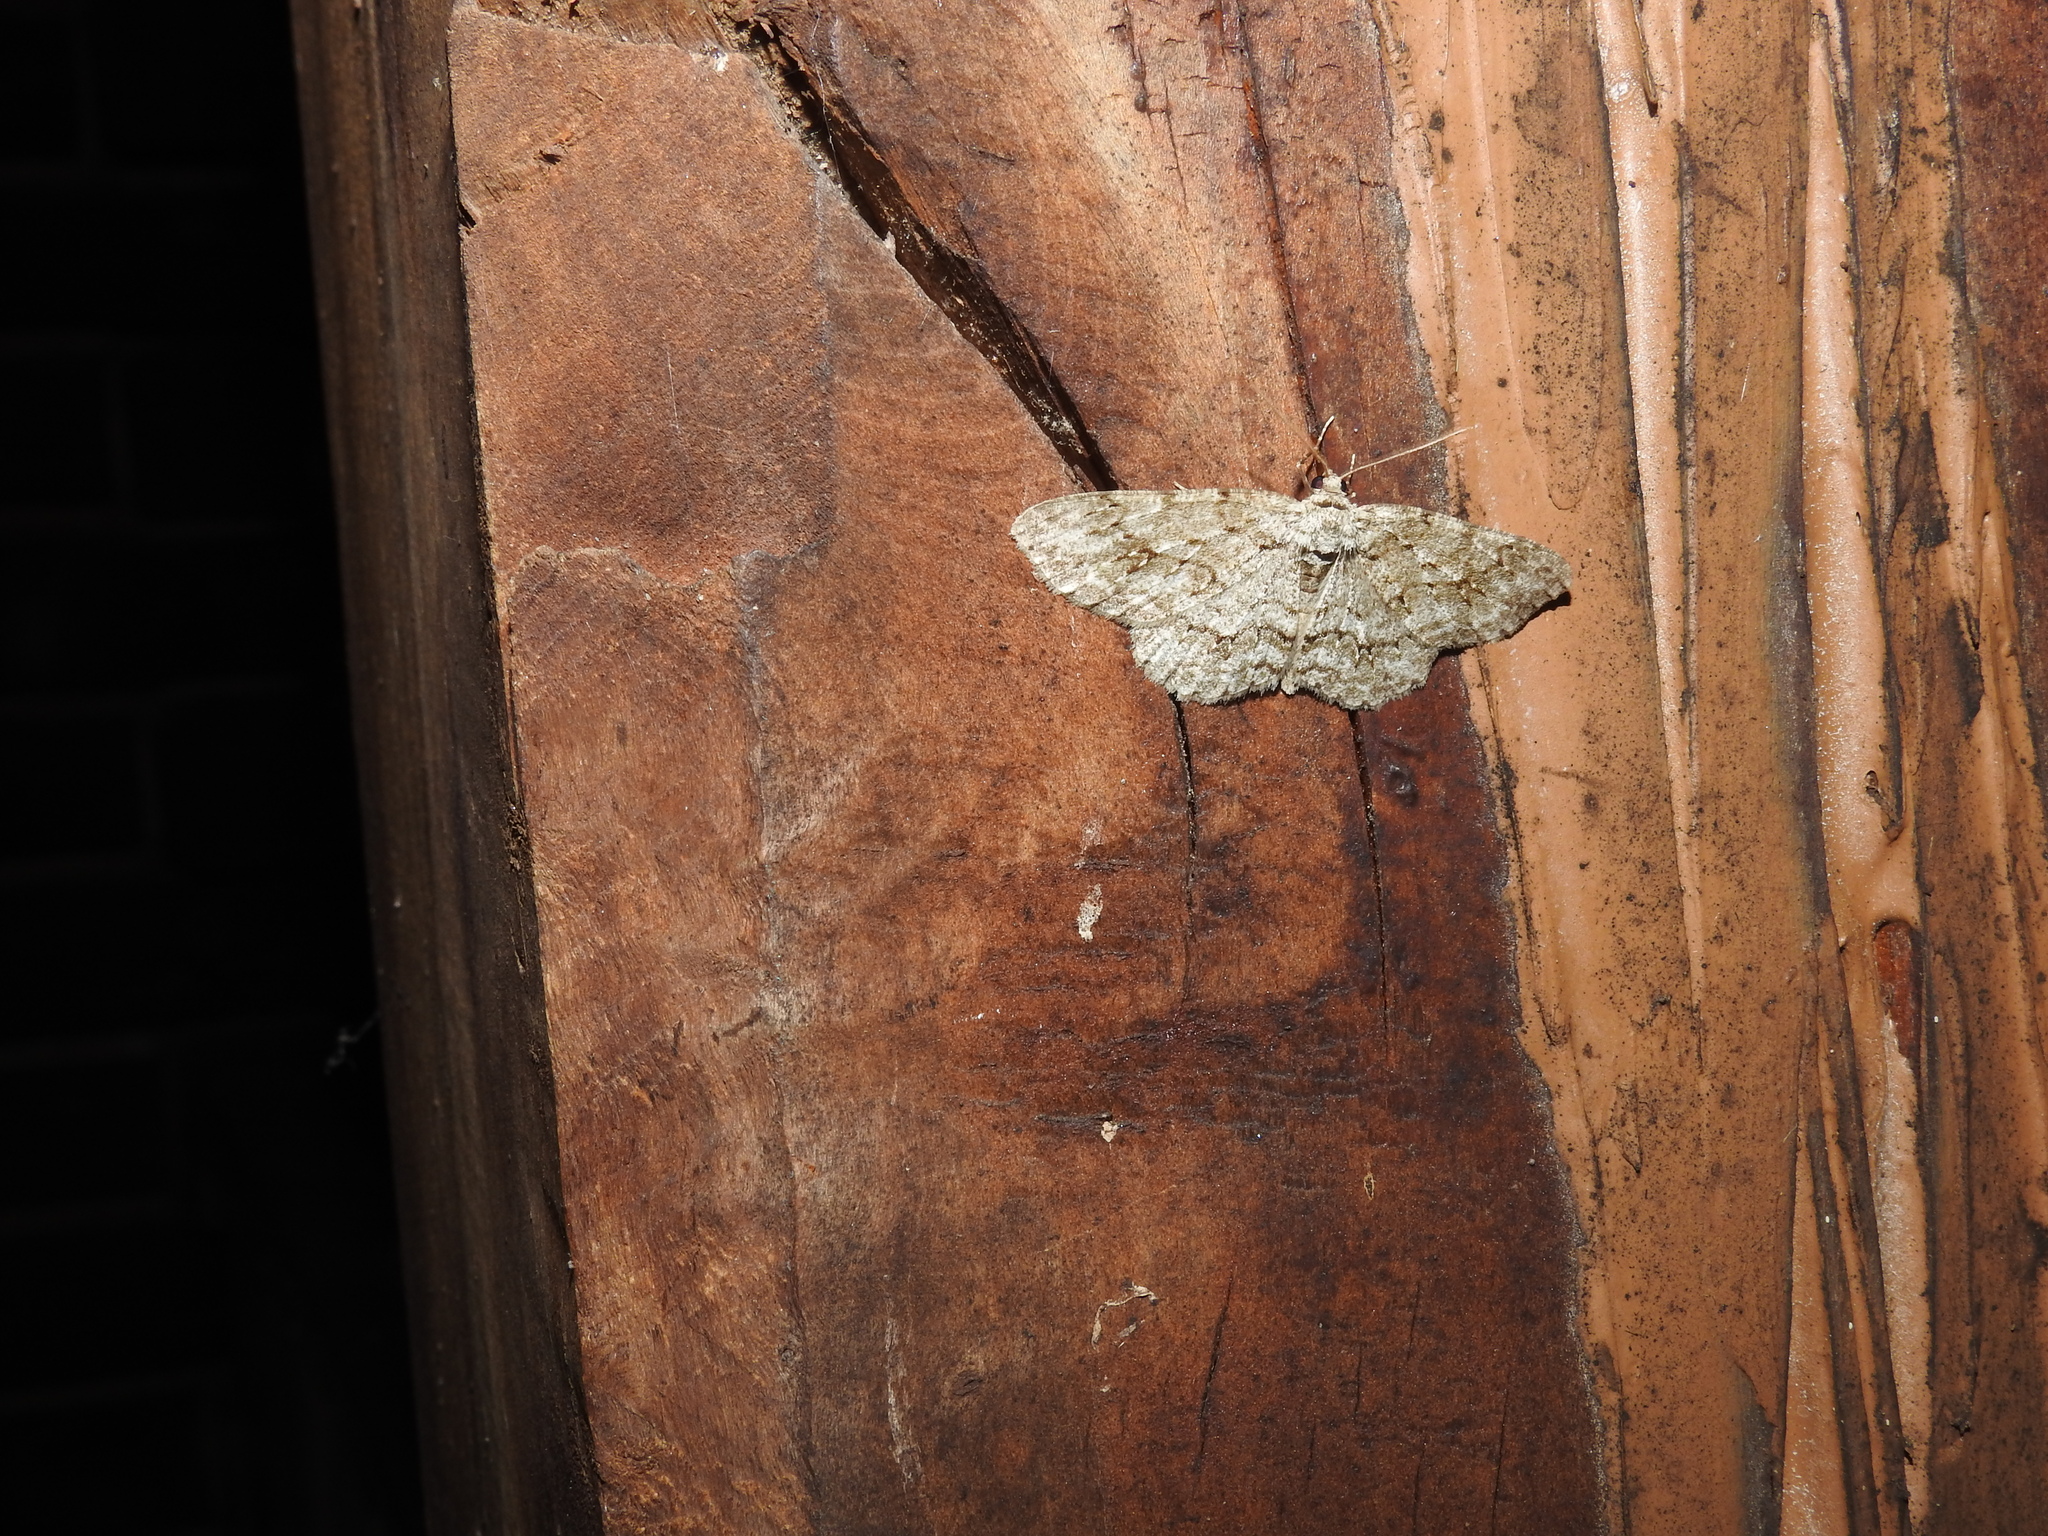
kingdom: Animalia
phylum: Arthropoda
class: Insecta
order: Lepidoptera
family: Geometridae
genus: Ectropis
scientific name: Ectropis crepuscularia
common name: Engrailed
